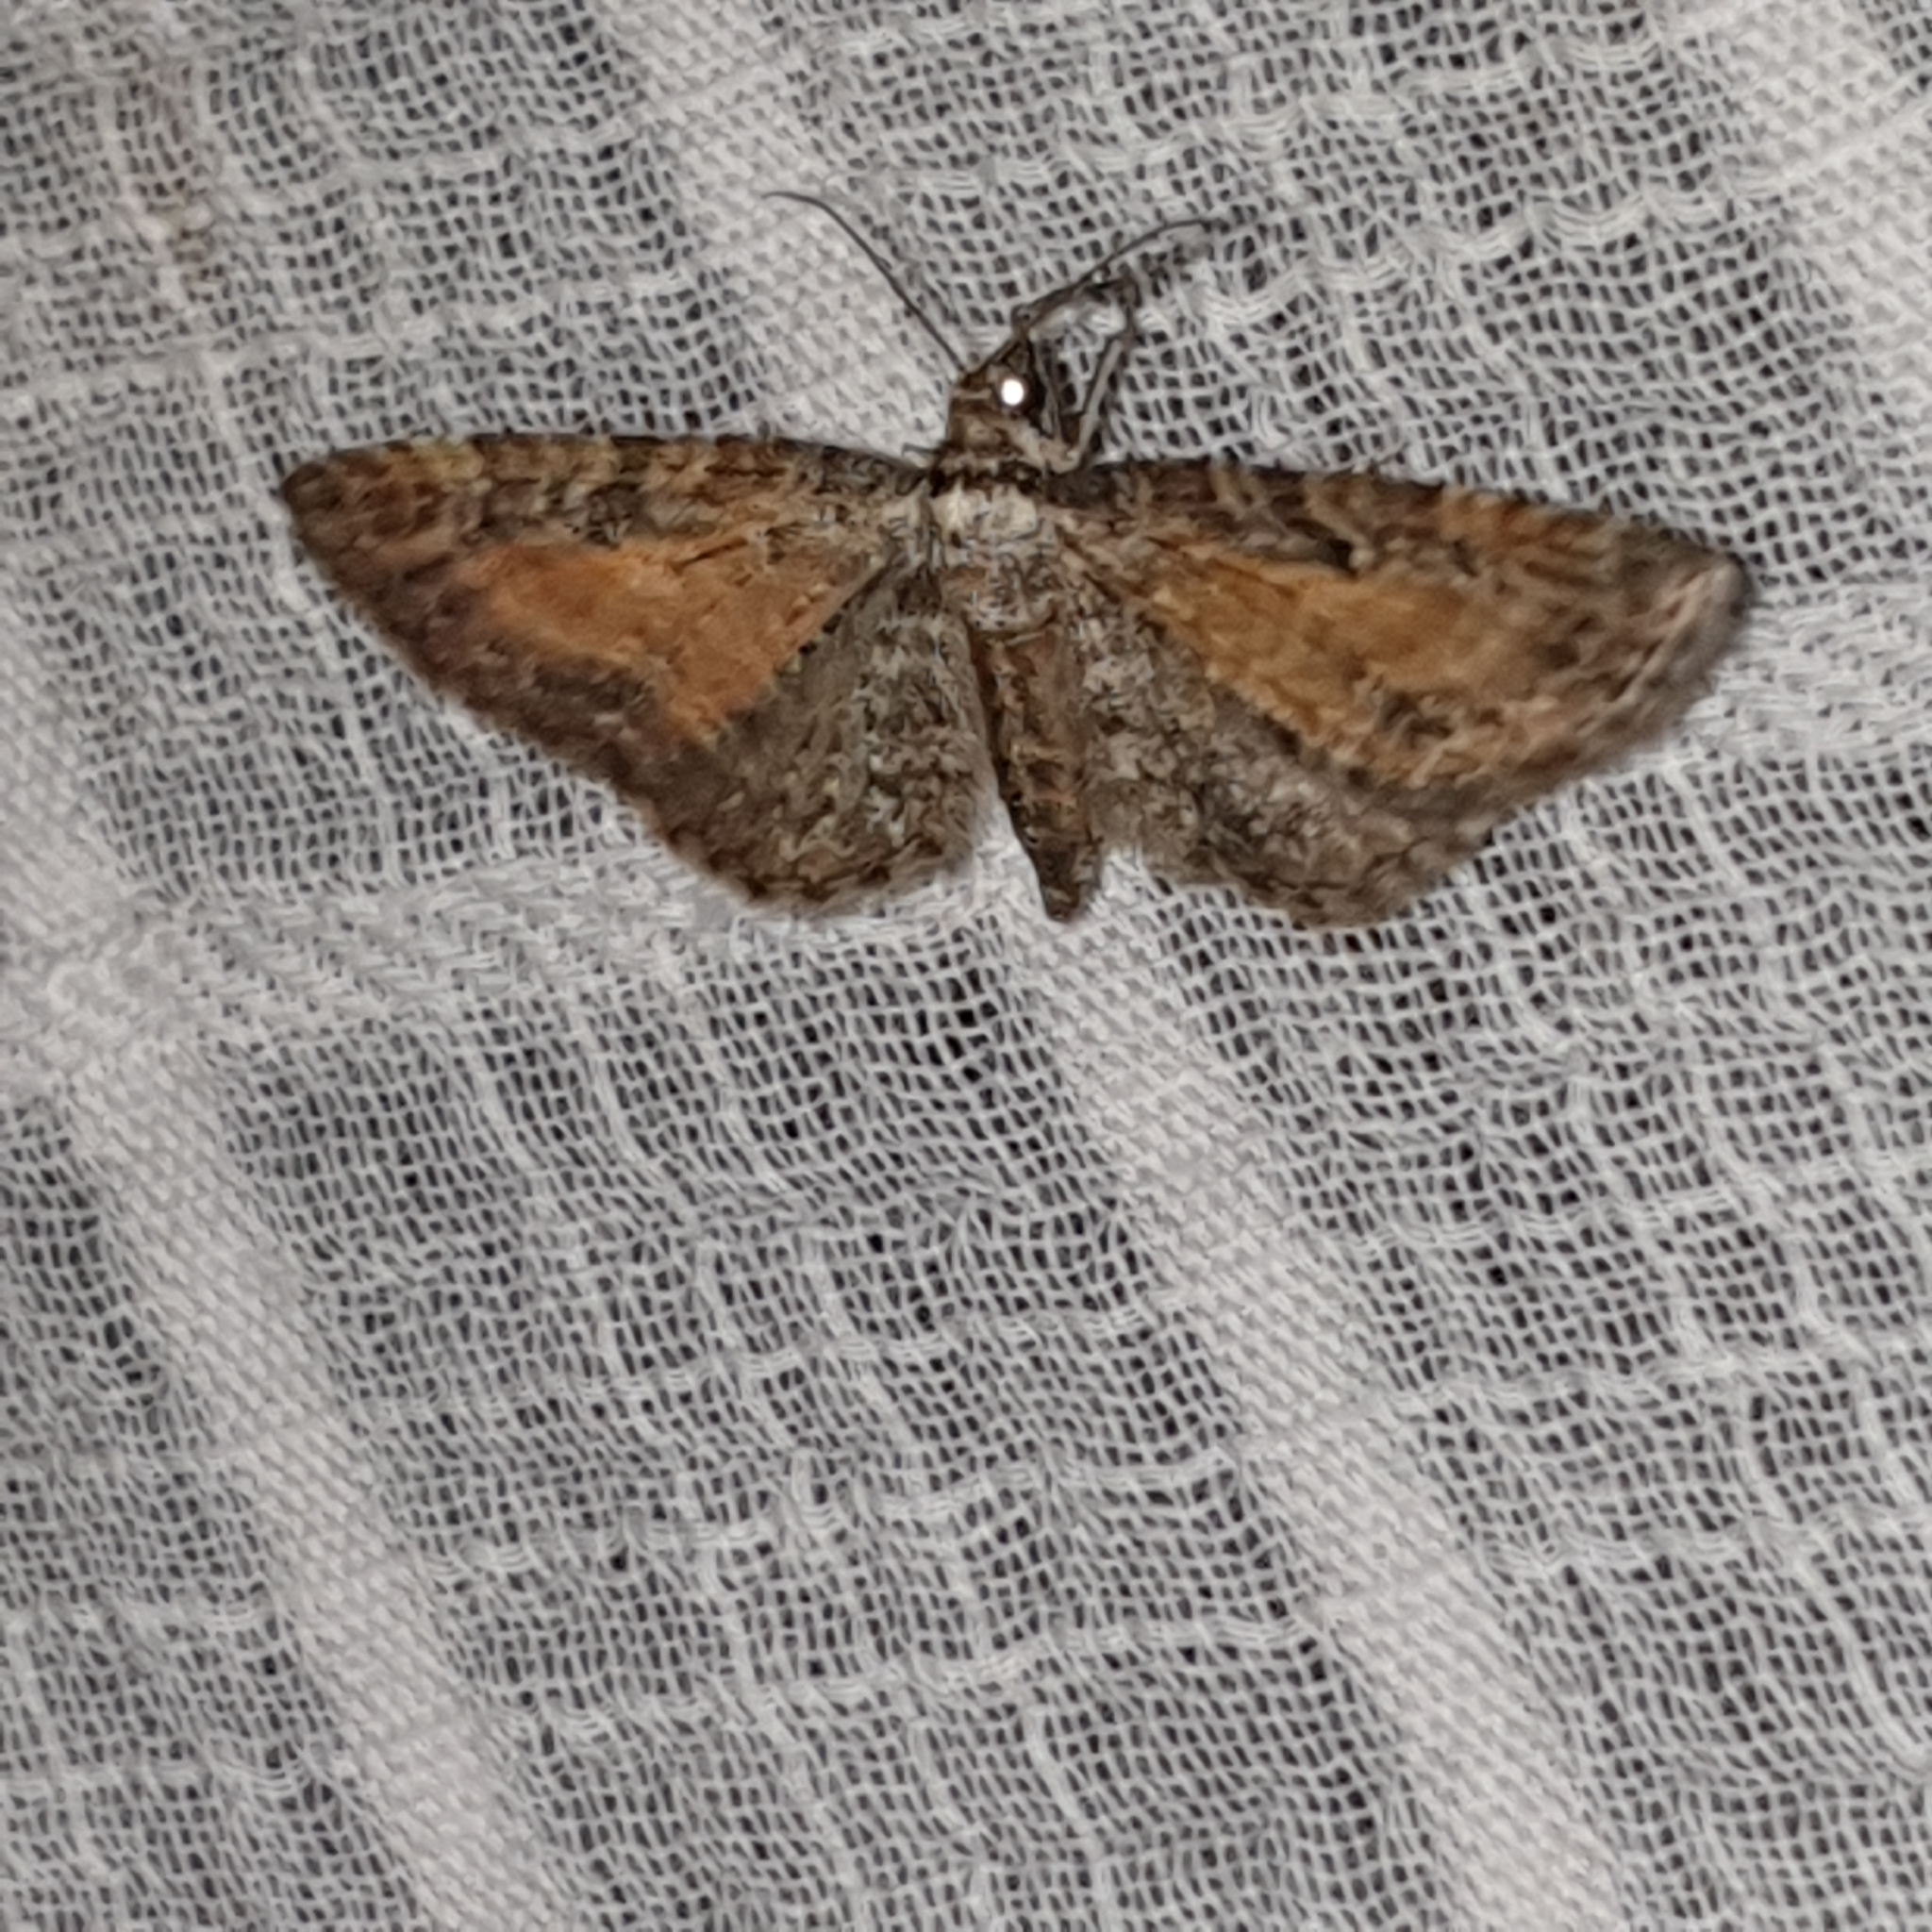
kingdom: Animalia
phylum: Arthropoda
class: Insecta
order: Lepidoptera
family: Geometridae
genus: Eupithecia
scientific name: Eupithecia icterata
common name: Tawny speckled pug
